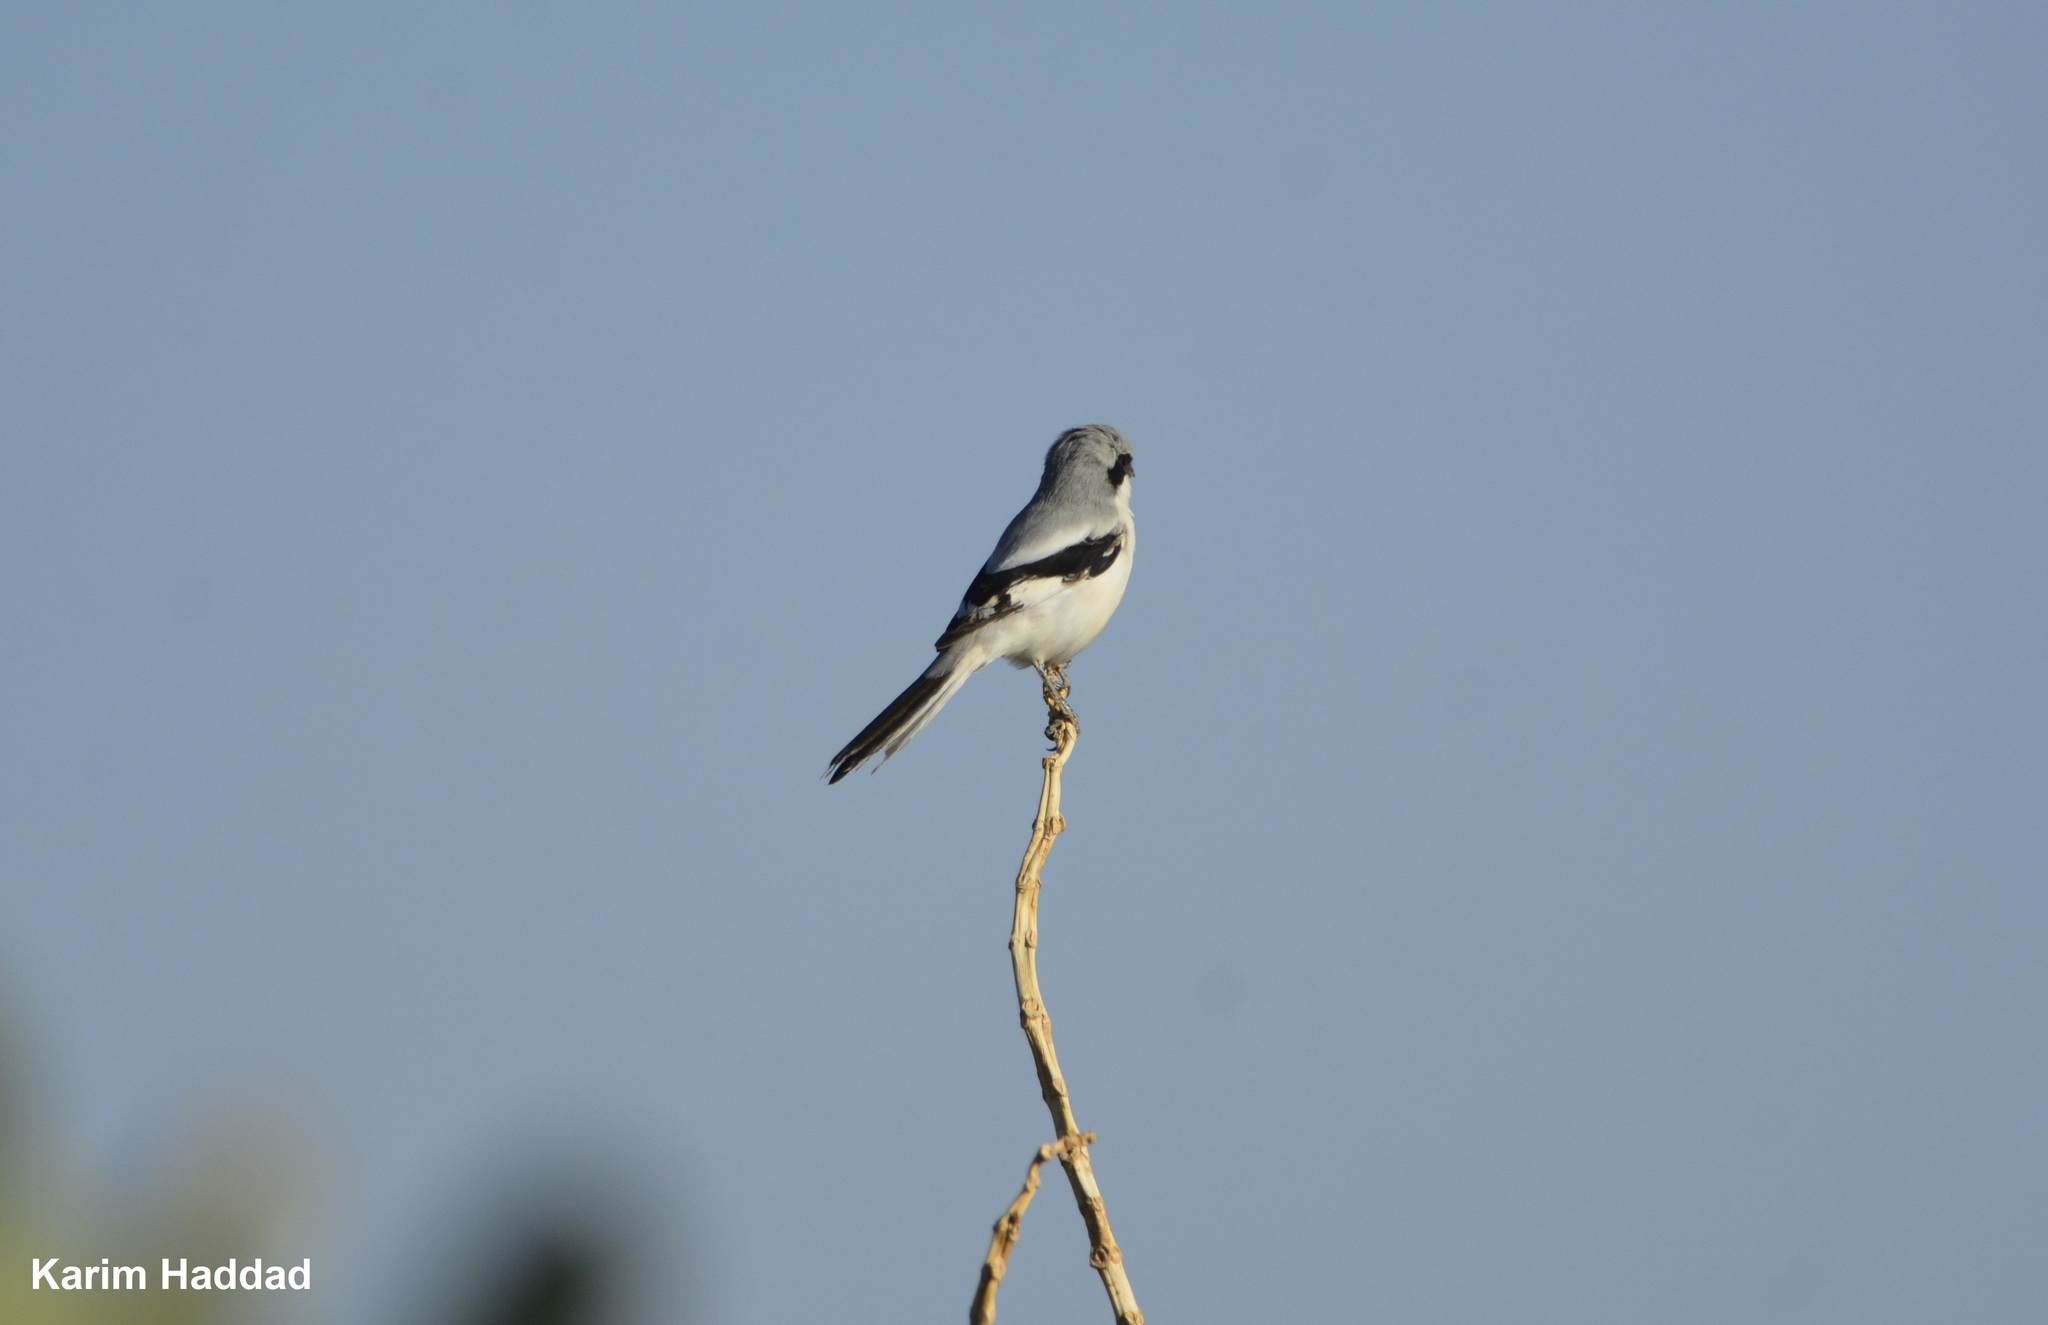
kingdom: Animalia
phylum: Chordata
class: Aves
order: Passeriformes
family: Laniidae
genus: Lanius
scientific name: Lanius excubitor
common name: Great grey shrike
